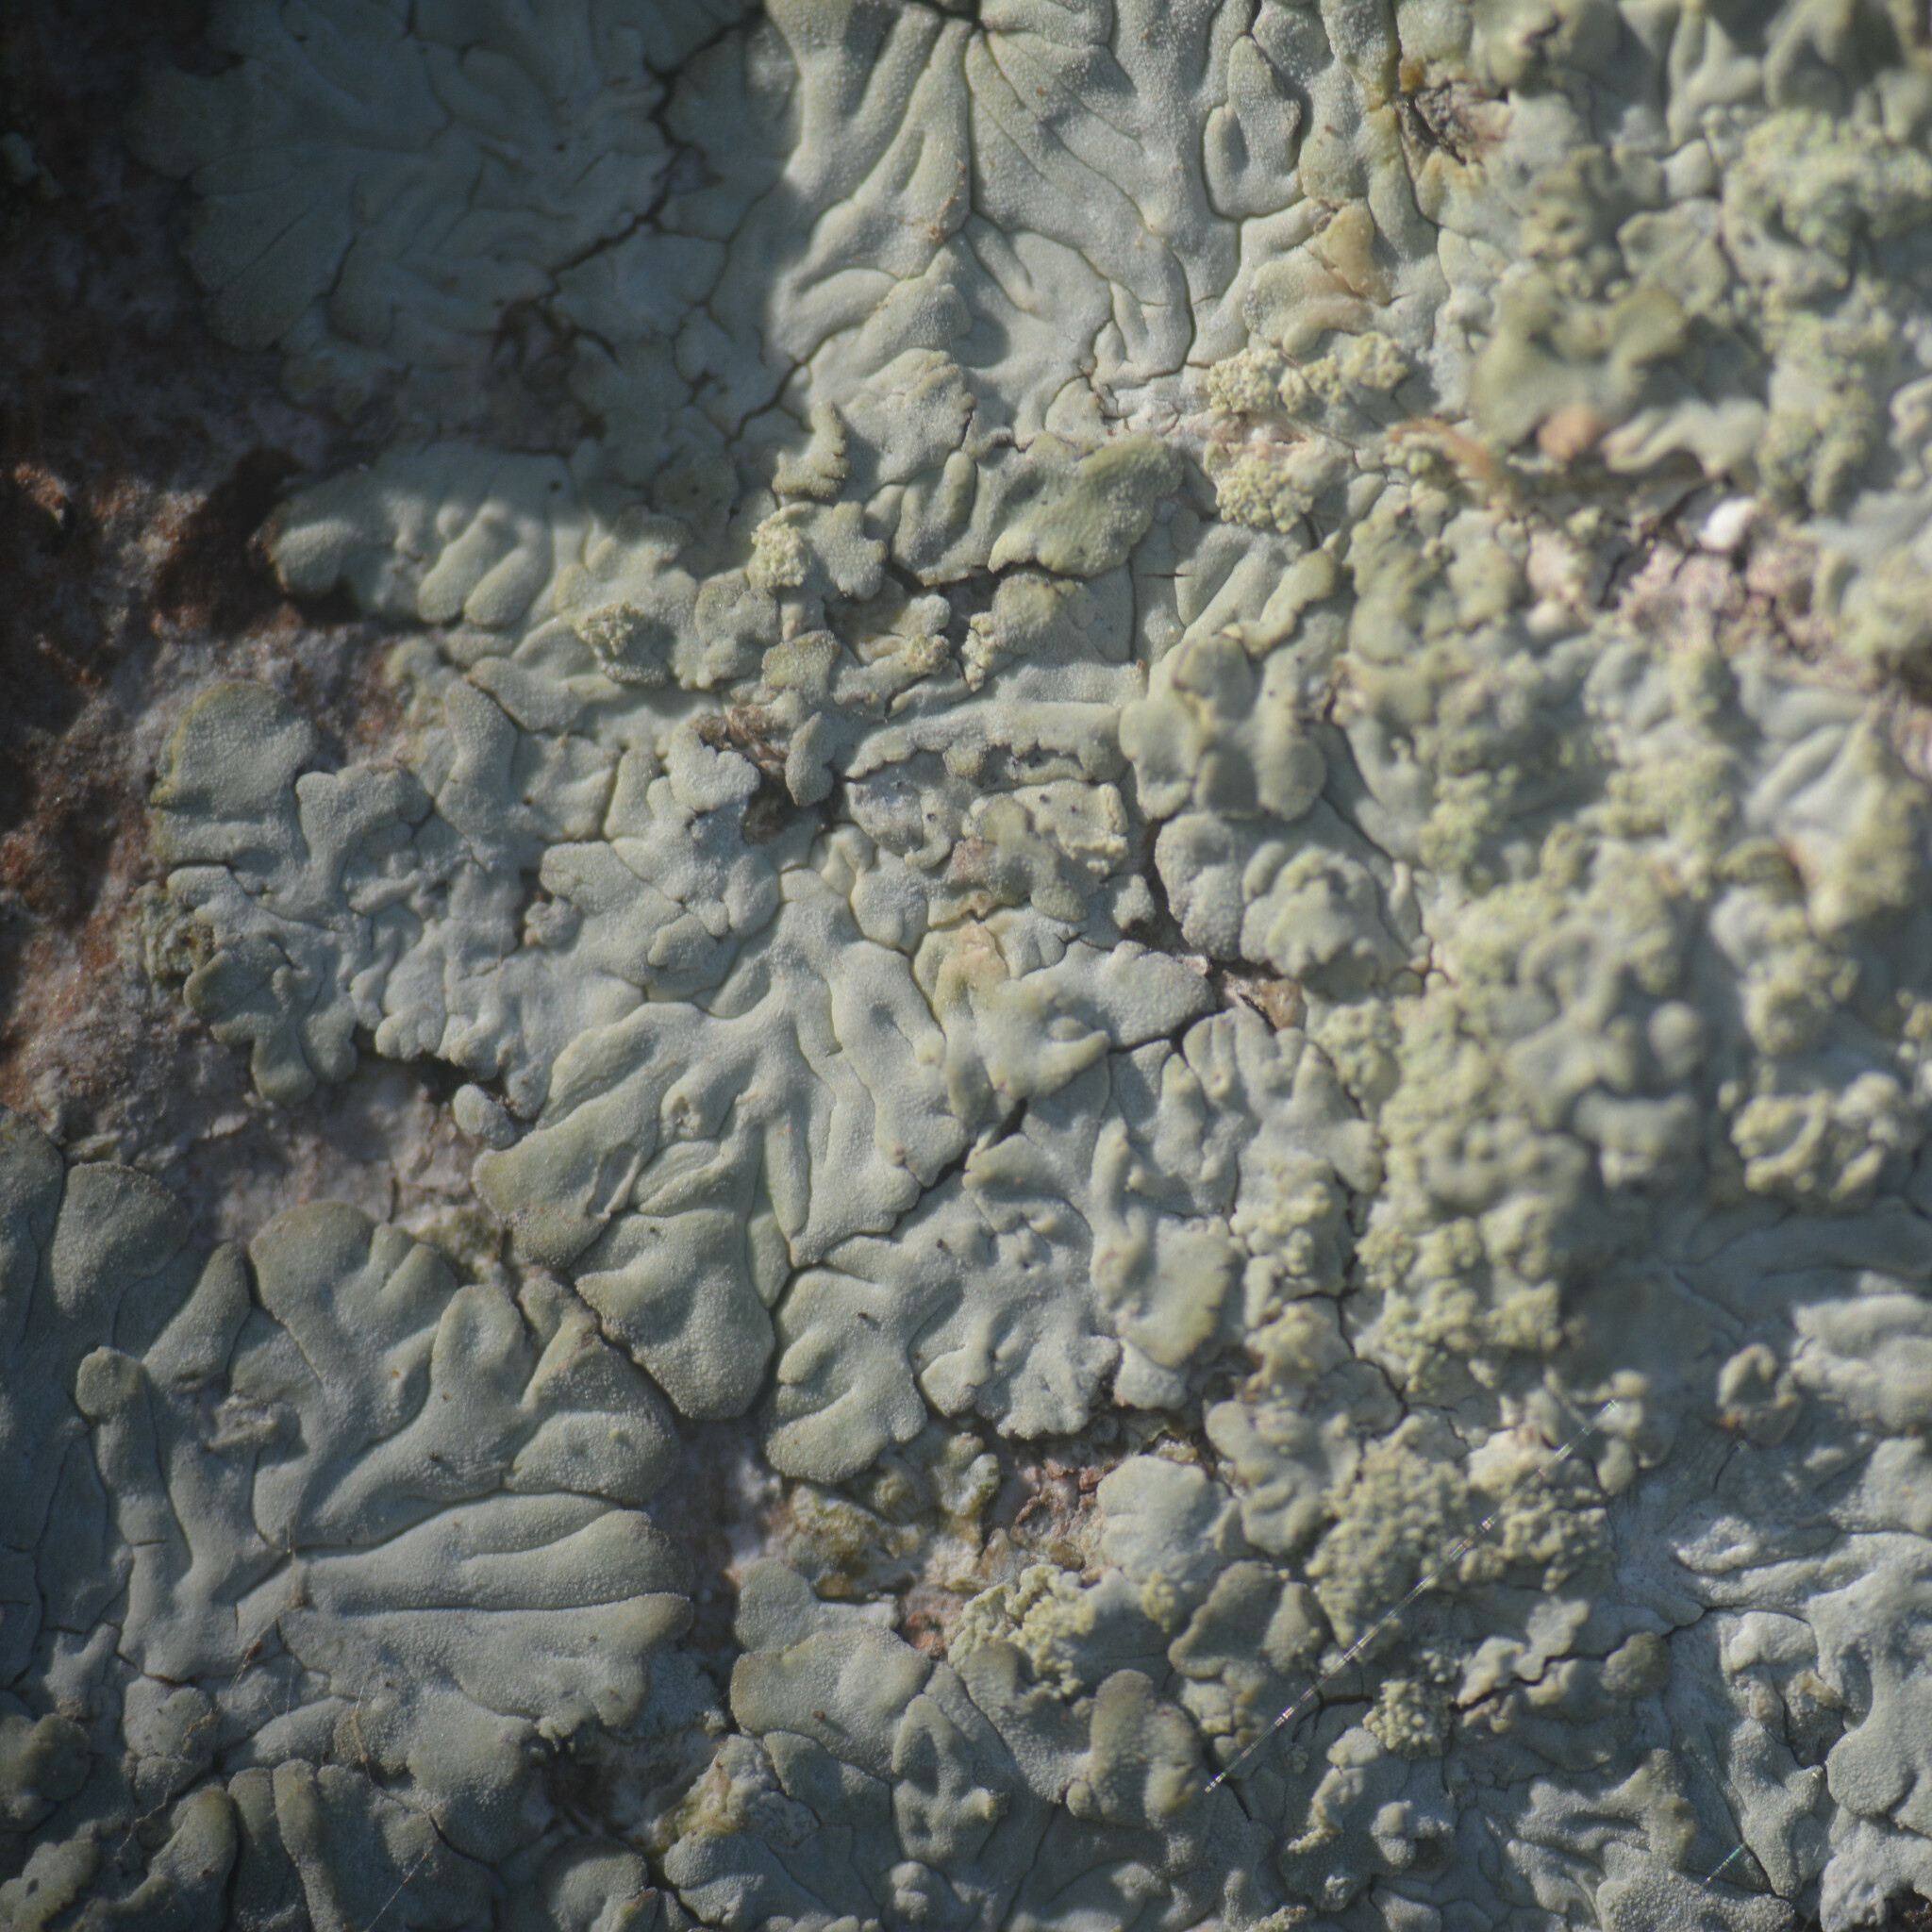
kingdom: Fungi
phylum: Ascomycota
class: Lecanoromycetes
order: Caliciales
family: Caliciaceae
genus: Diploicia
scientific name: Diploicia canescens
